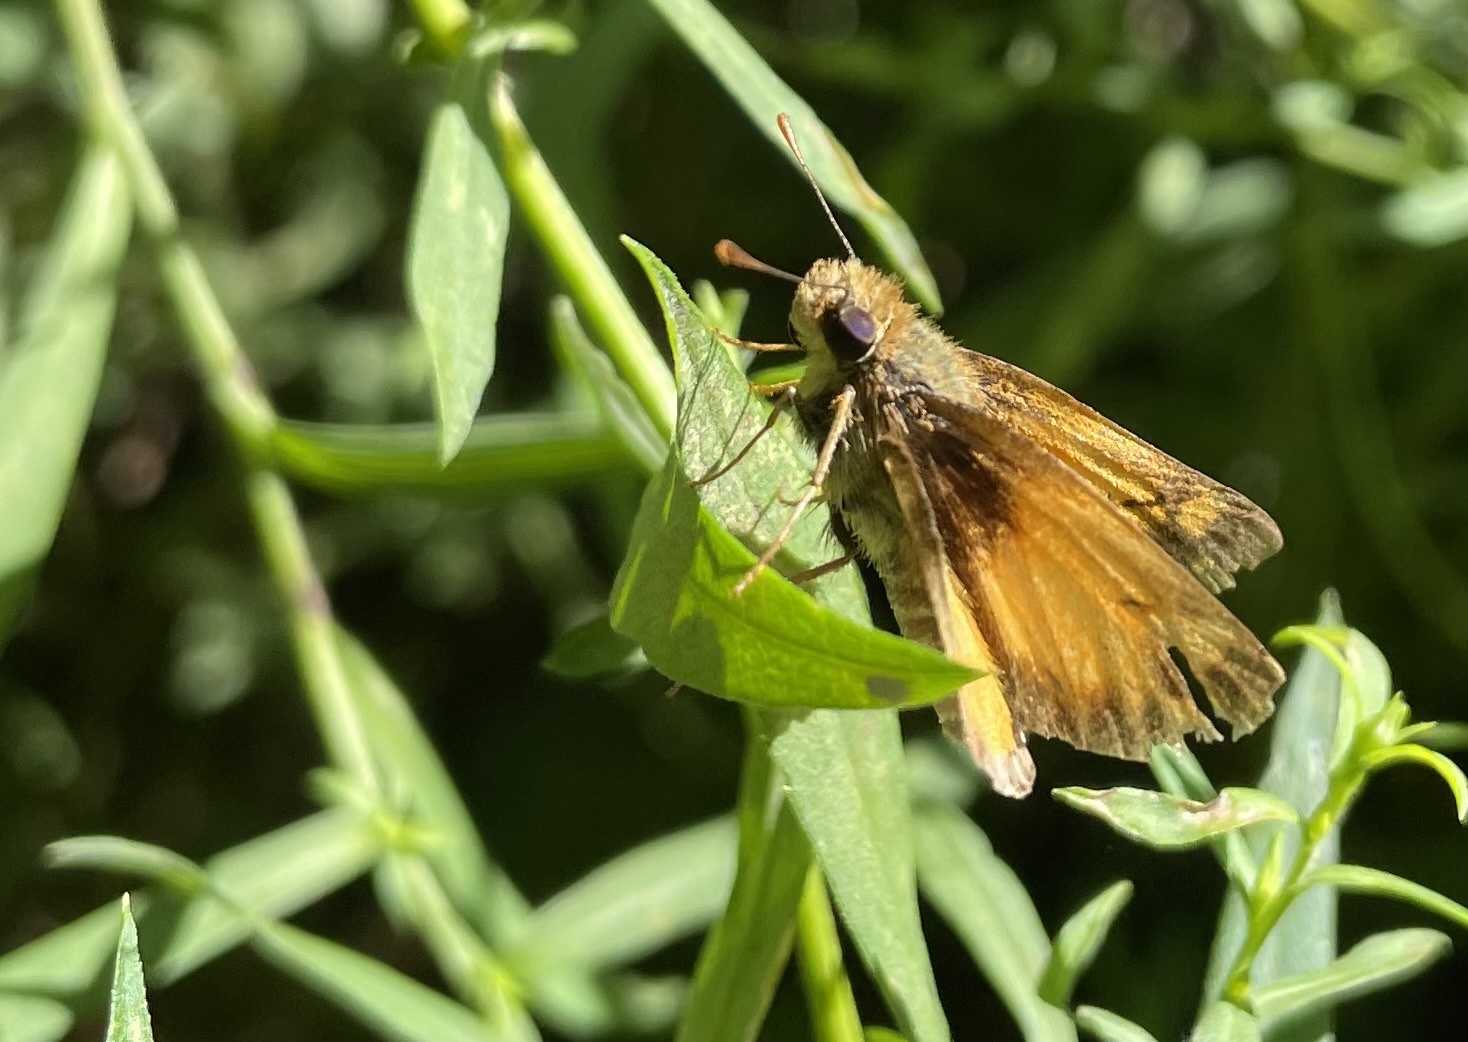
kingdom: Animalia
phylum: Arthropoda
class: Insecta
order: Lepidoptera
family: Hesperiidae
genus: Lon
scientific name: Lon zabulon
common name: Zabulon skipper
